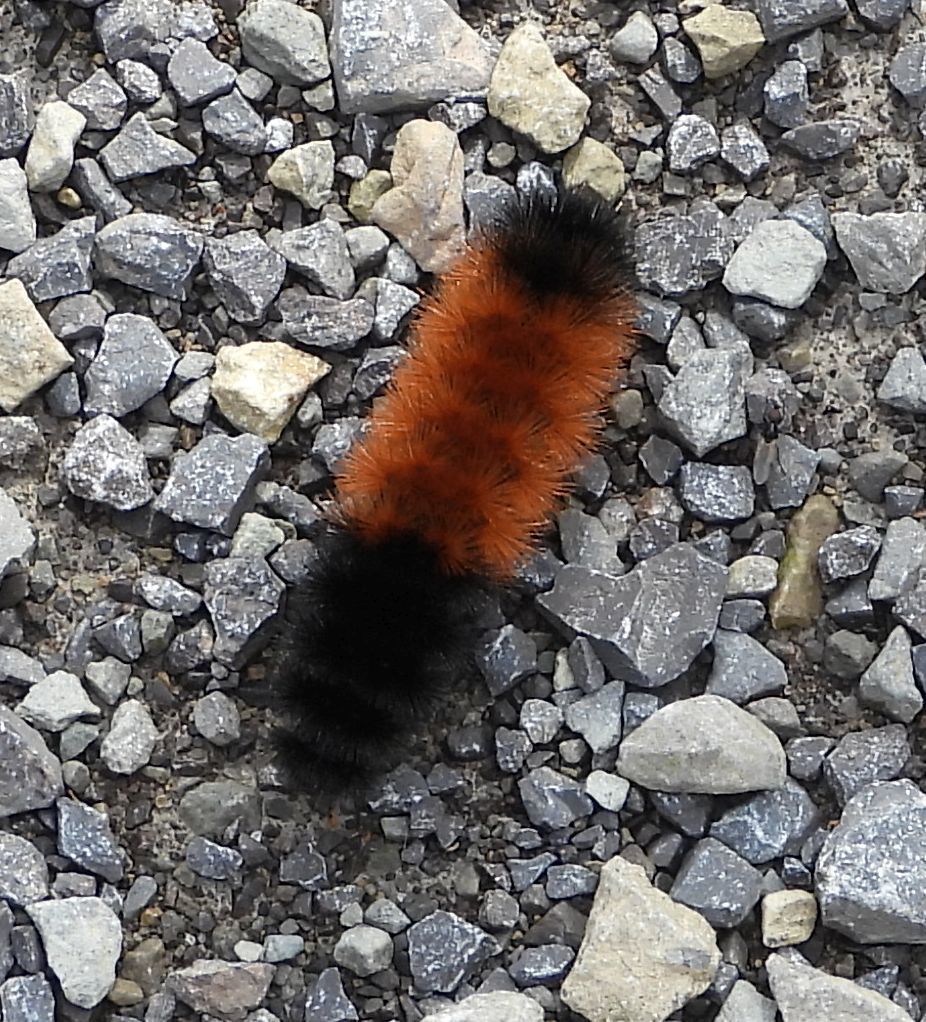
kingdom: Animalia
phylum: Arthropoda
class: Insecta
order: Lepidoptera
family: Erebidae
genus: Pyrrharctia
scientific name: Pyrrharctia isabella
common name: Isabella tiger moth
